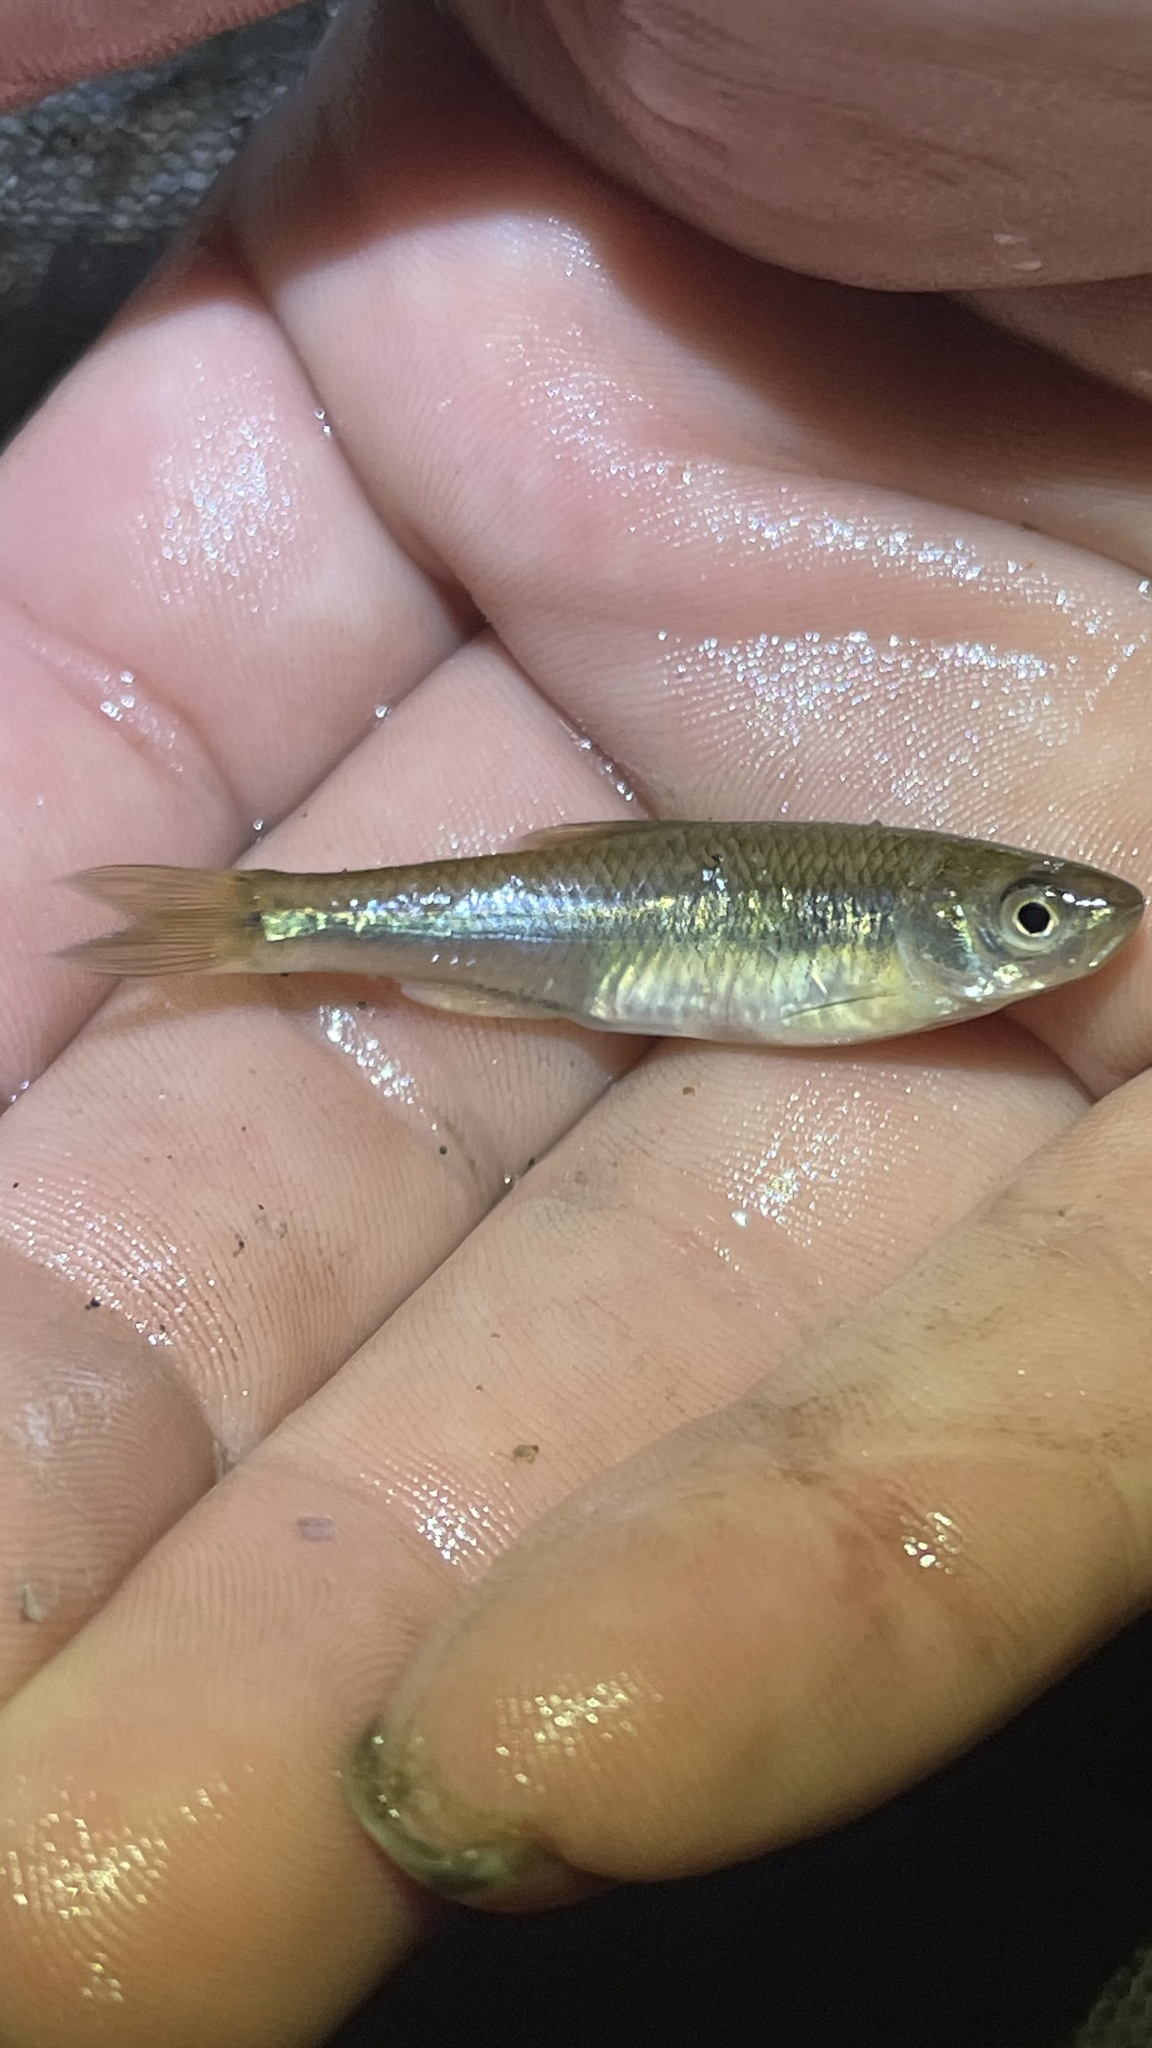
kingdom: Animalia
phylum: Chordata
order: Cypriniformes
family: Cyprinidae
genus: Cyprinella
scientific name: Cyprinella spiloptera
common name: Spotfin shiner
